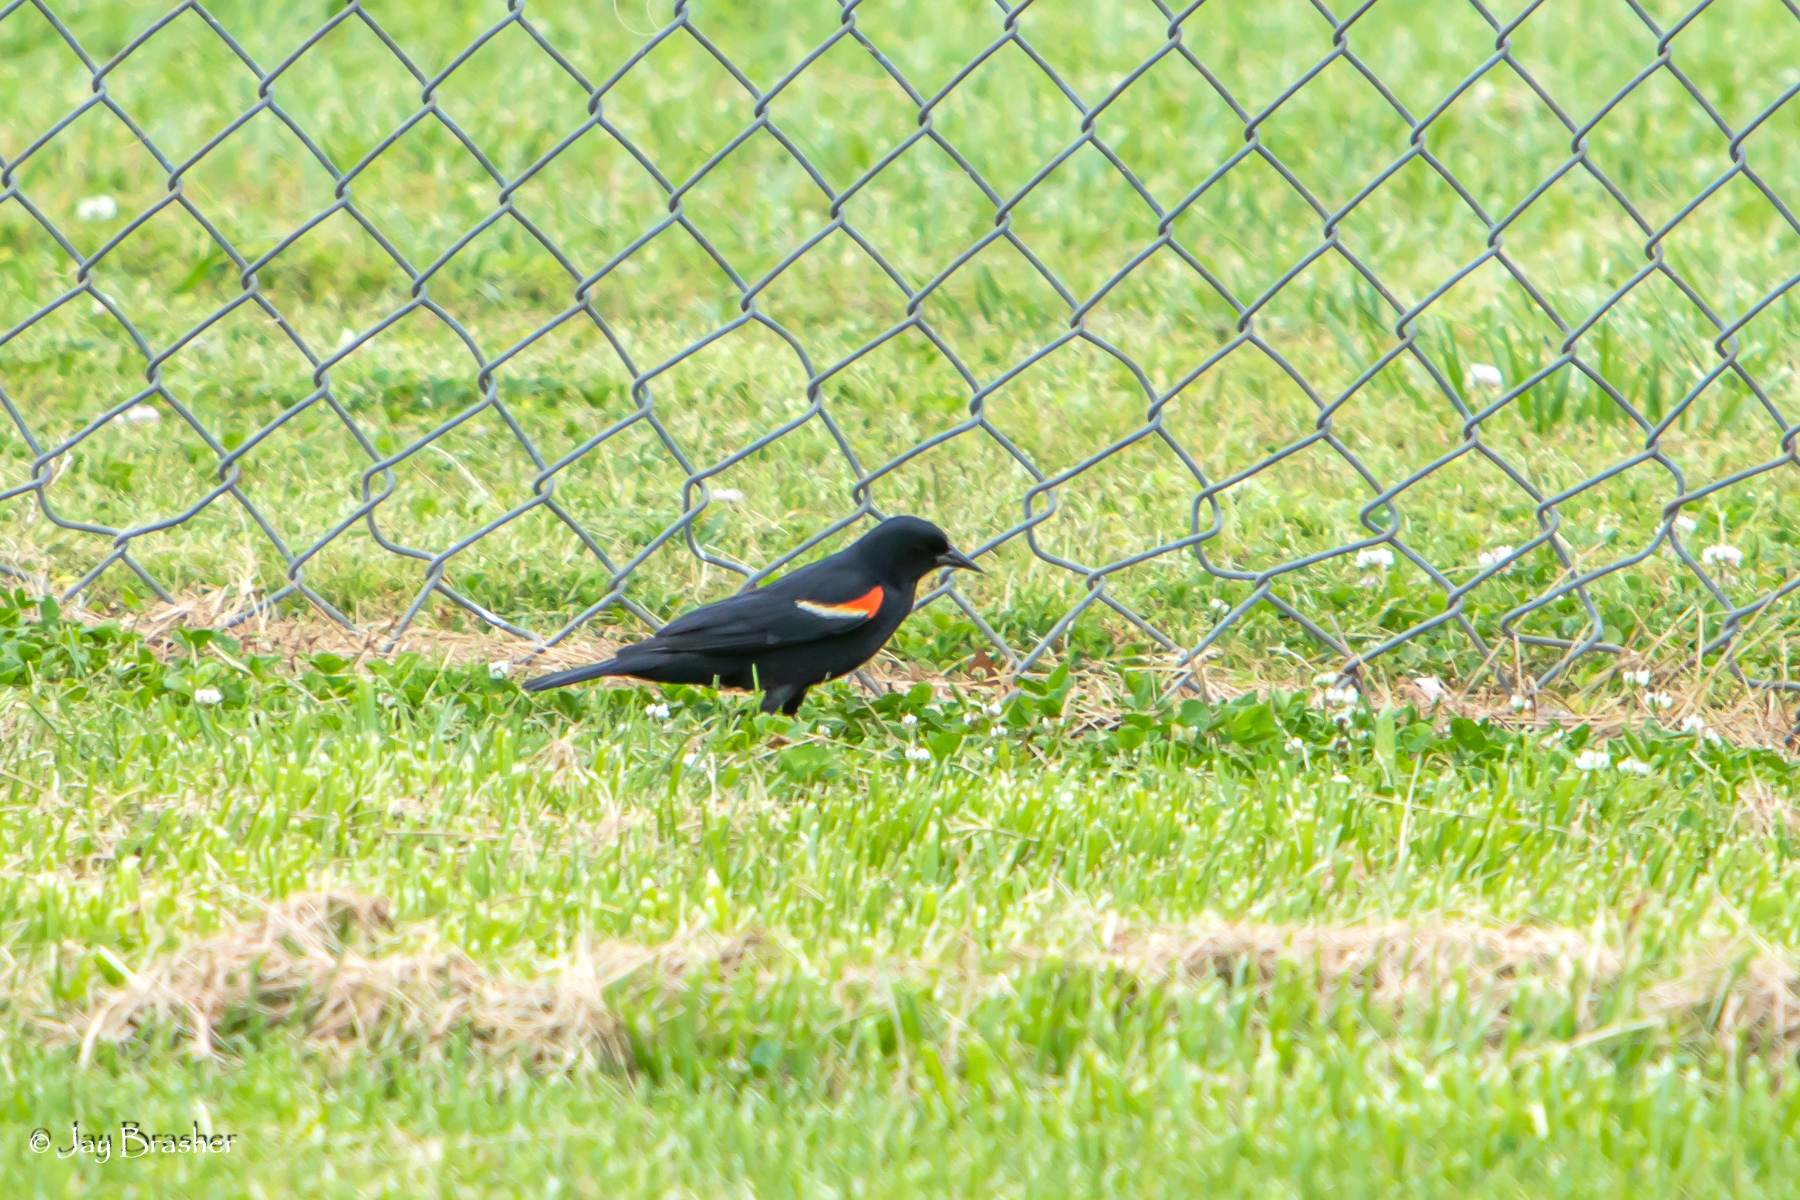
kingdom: Animalia
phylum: Chordata
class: Aves
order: Passeriformes
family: Icteridae
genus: Agelaius
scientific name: Agelaius phoeniceus
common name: Red-winged blackbird
